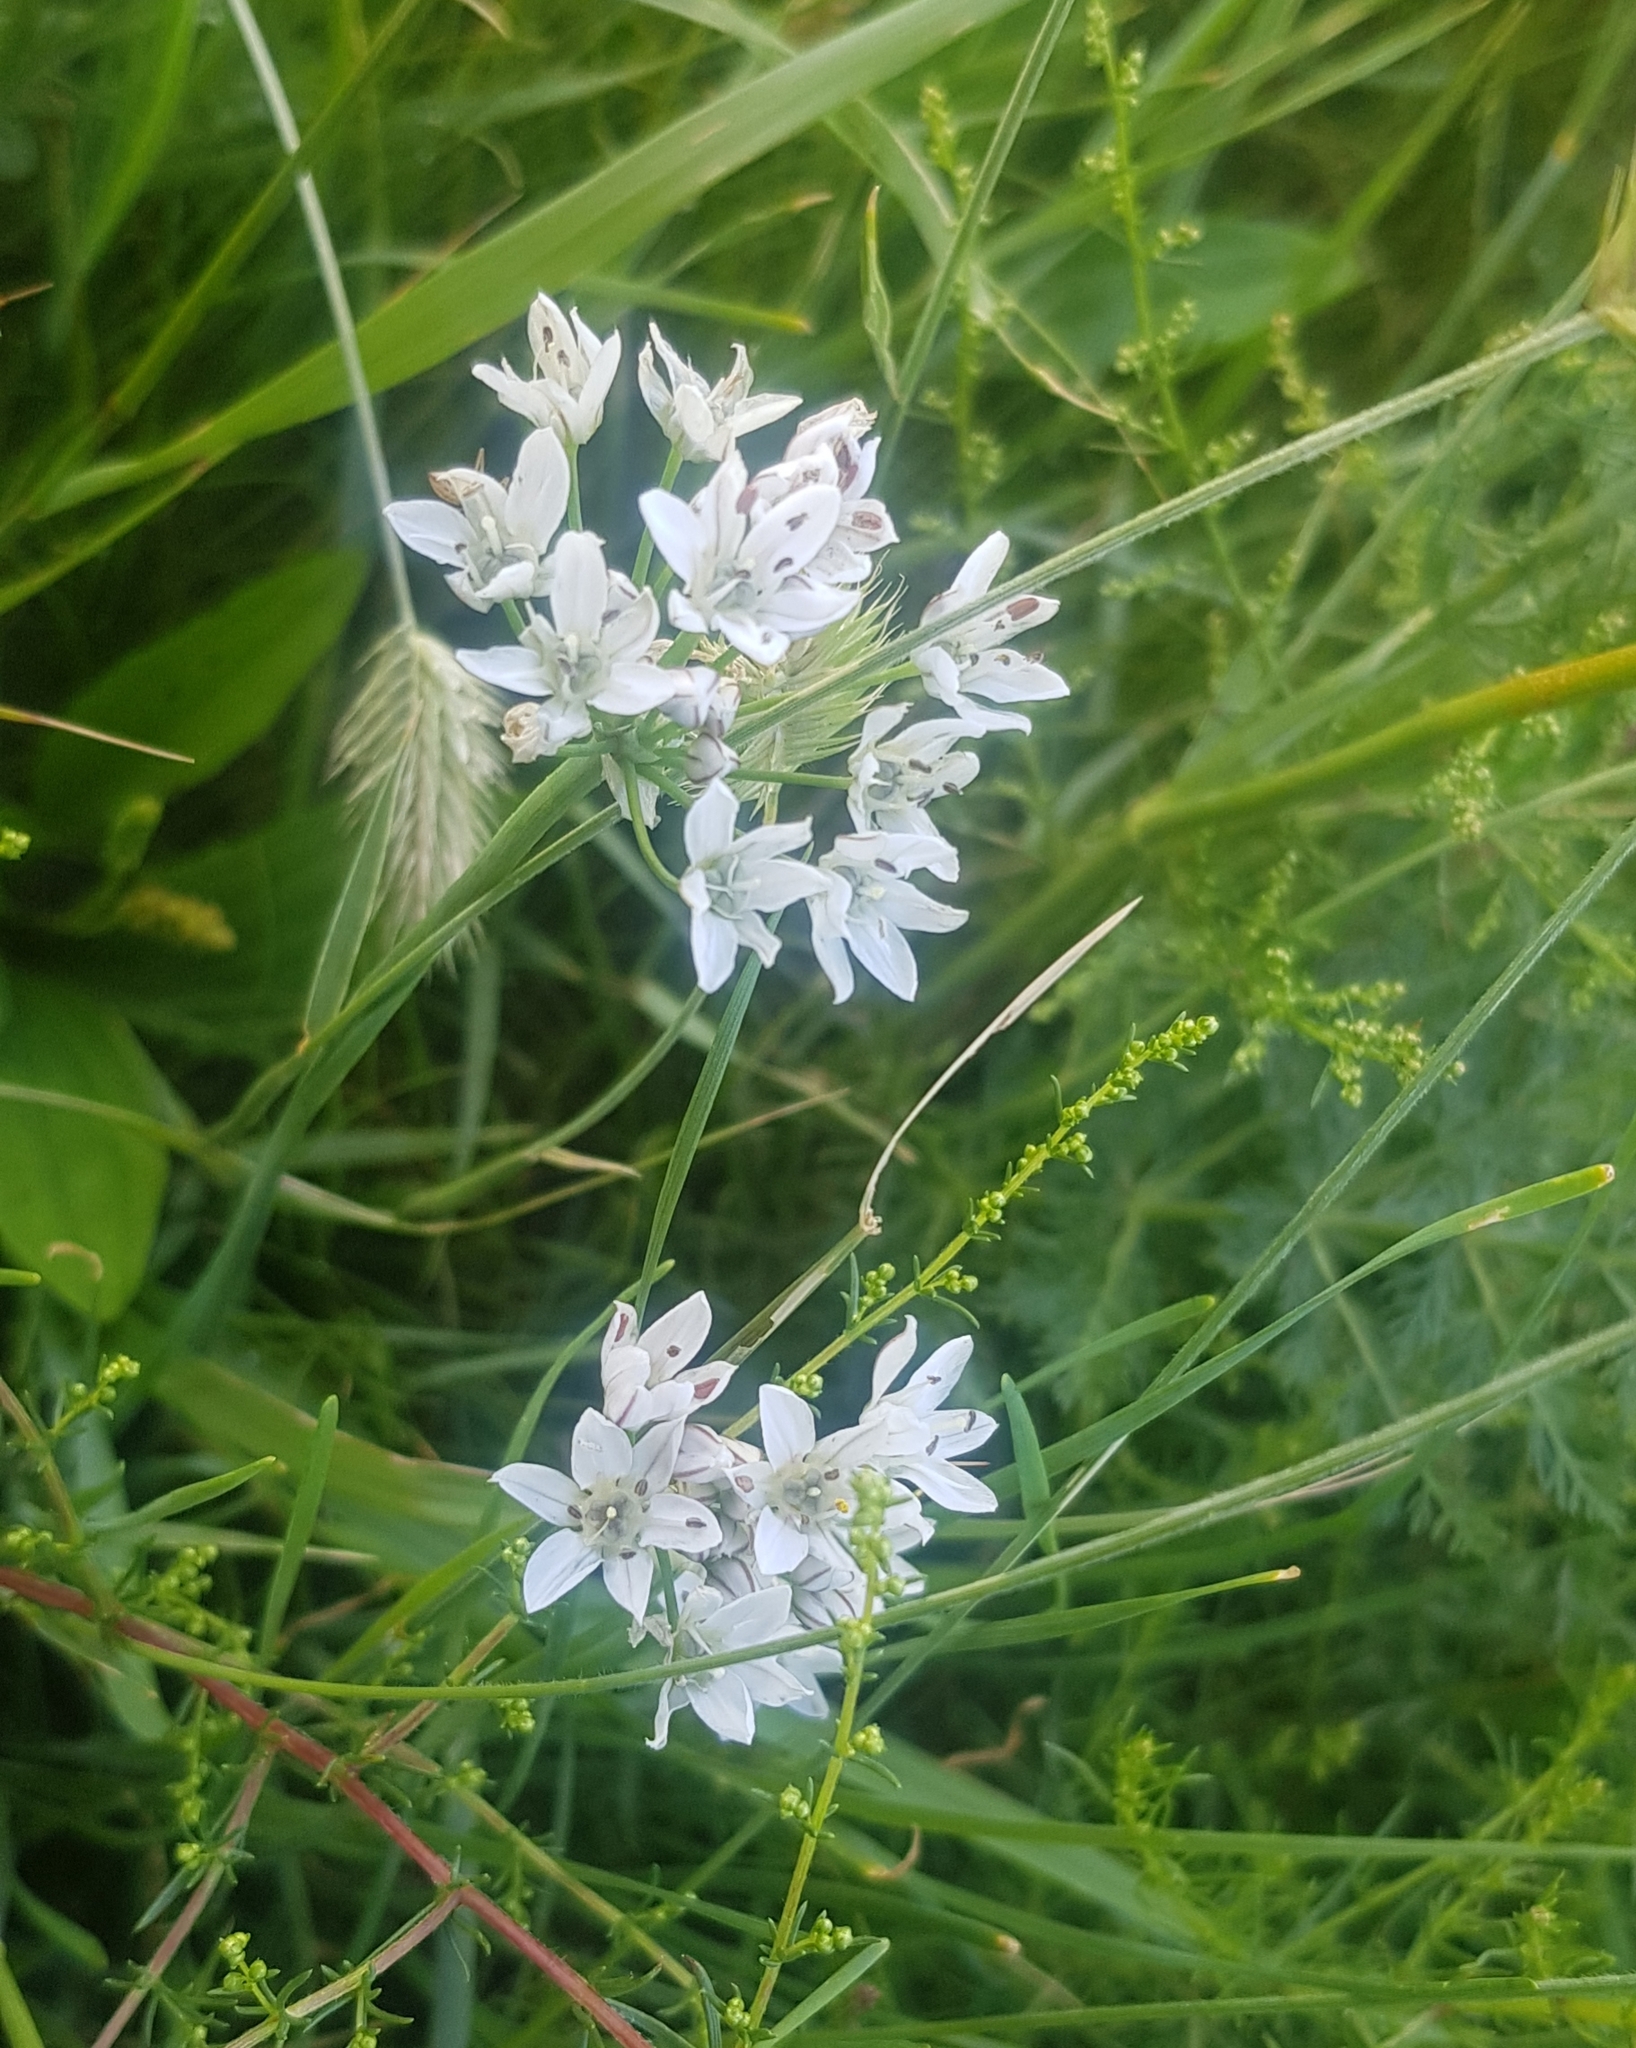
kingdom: Plantae
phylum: Tracheophyta
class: Liliopsida
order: Asparagales
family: Amaryllidaceae
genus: Allium
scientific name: Allium ramosum
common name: Fragrant garlic
